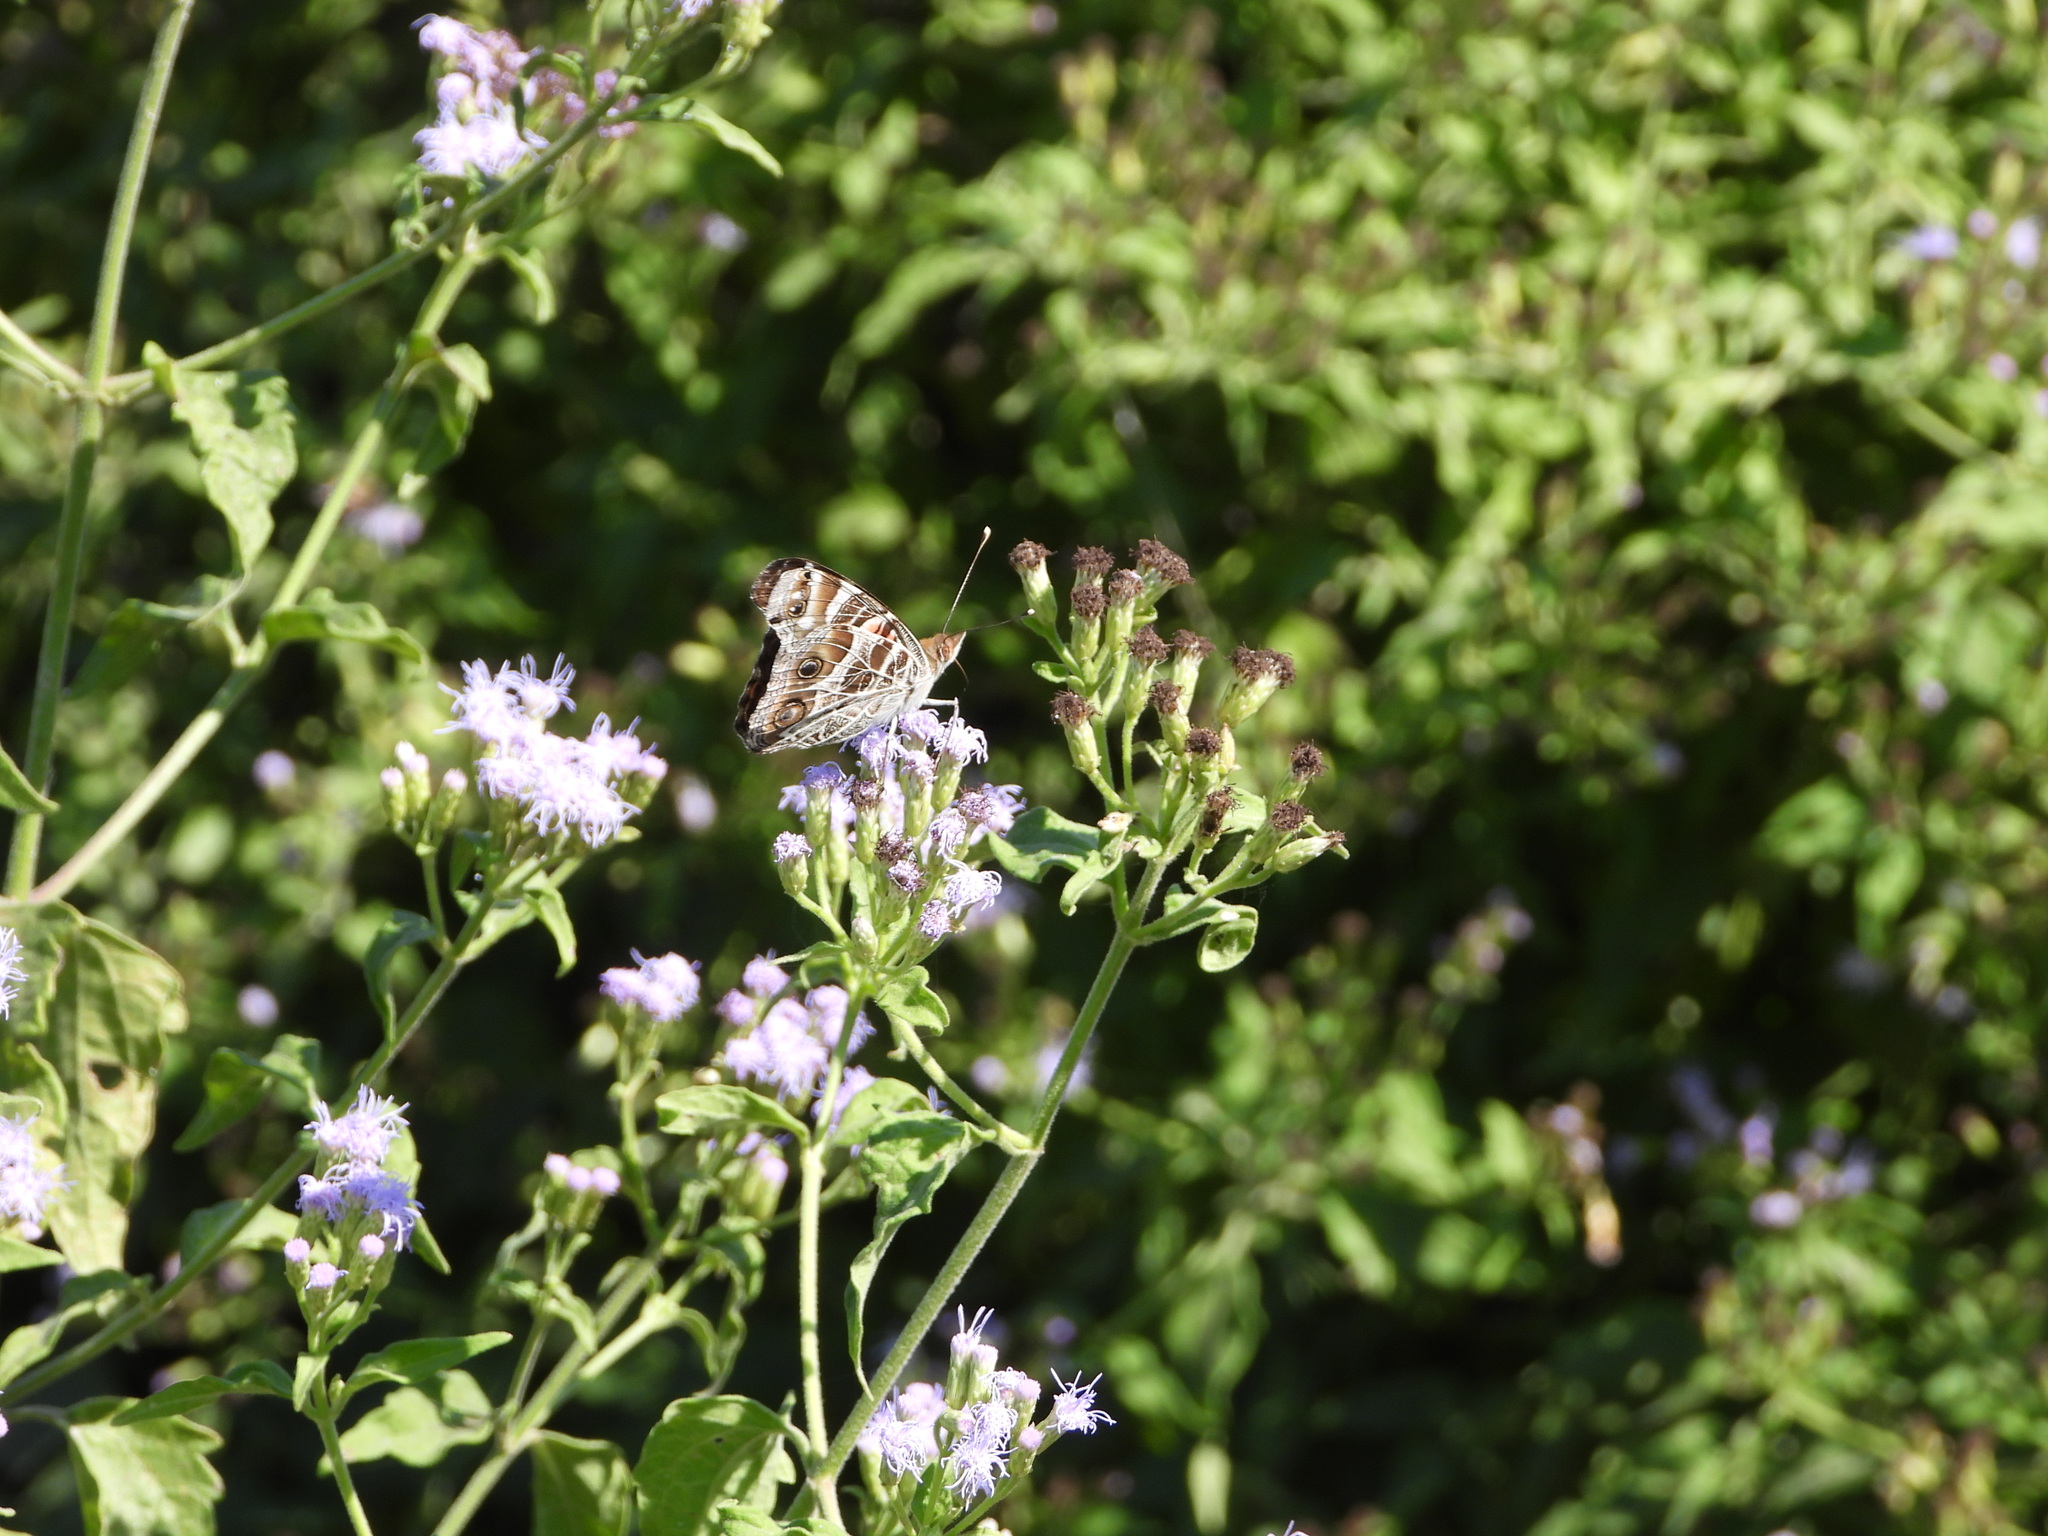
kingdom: Animalia
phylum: Arthropoda
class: Insecta
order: Lepidoptera
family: Nymphalidae
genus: Vanessa
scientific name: Vanessa virginiensis
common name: American lady
